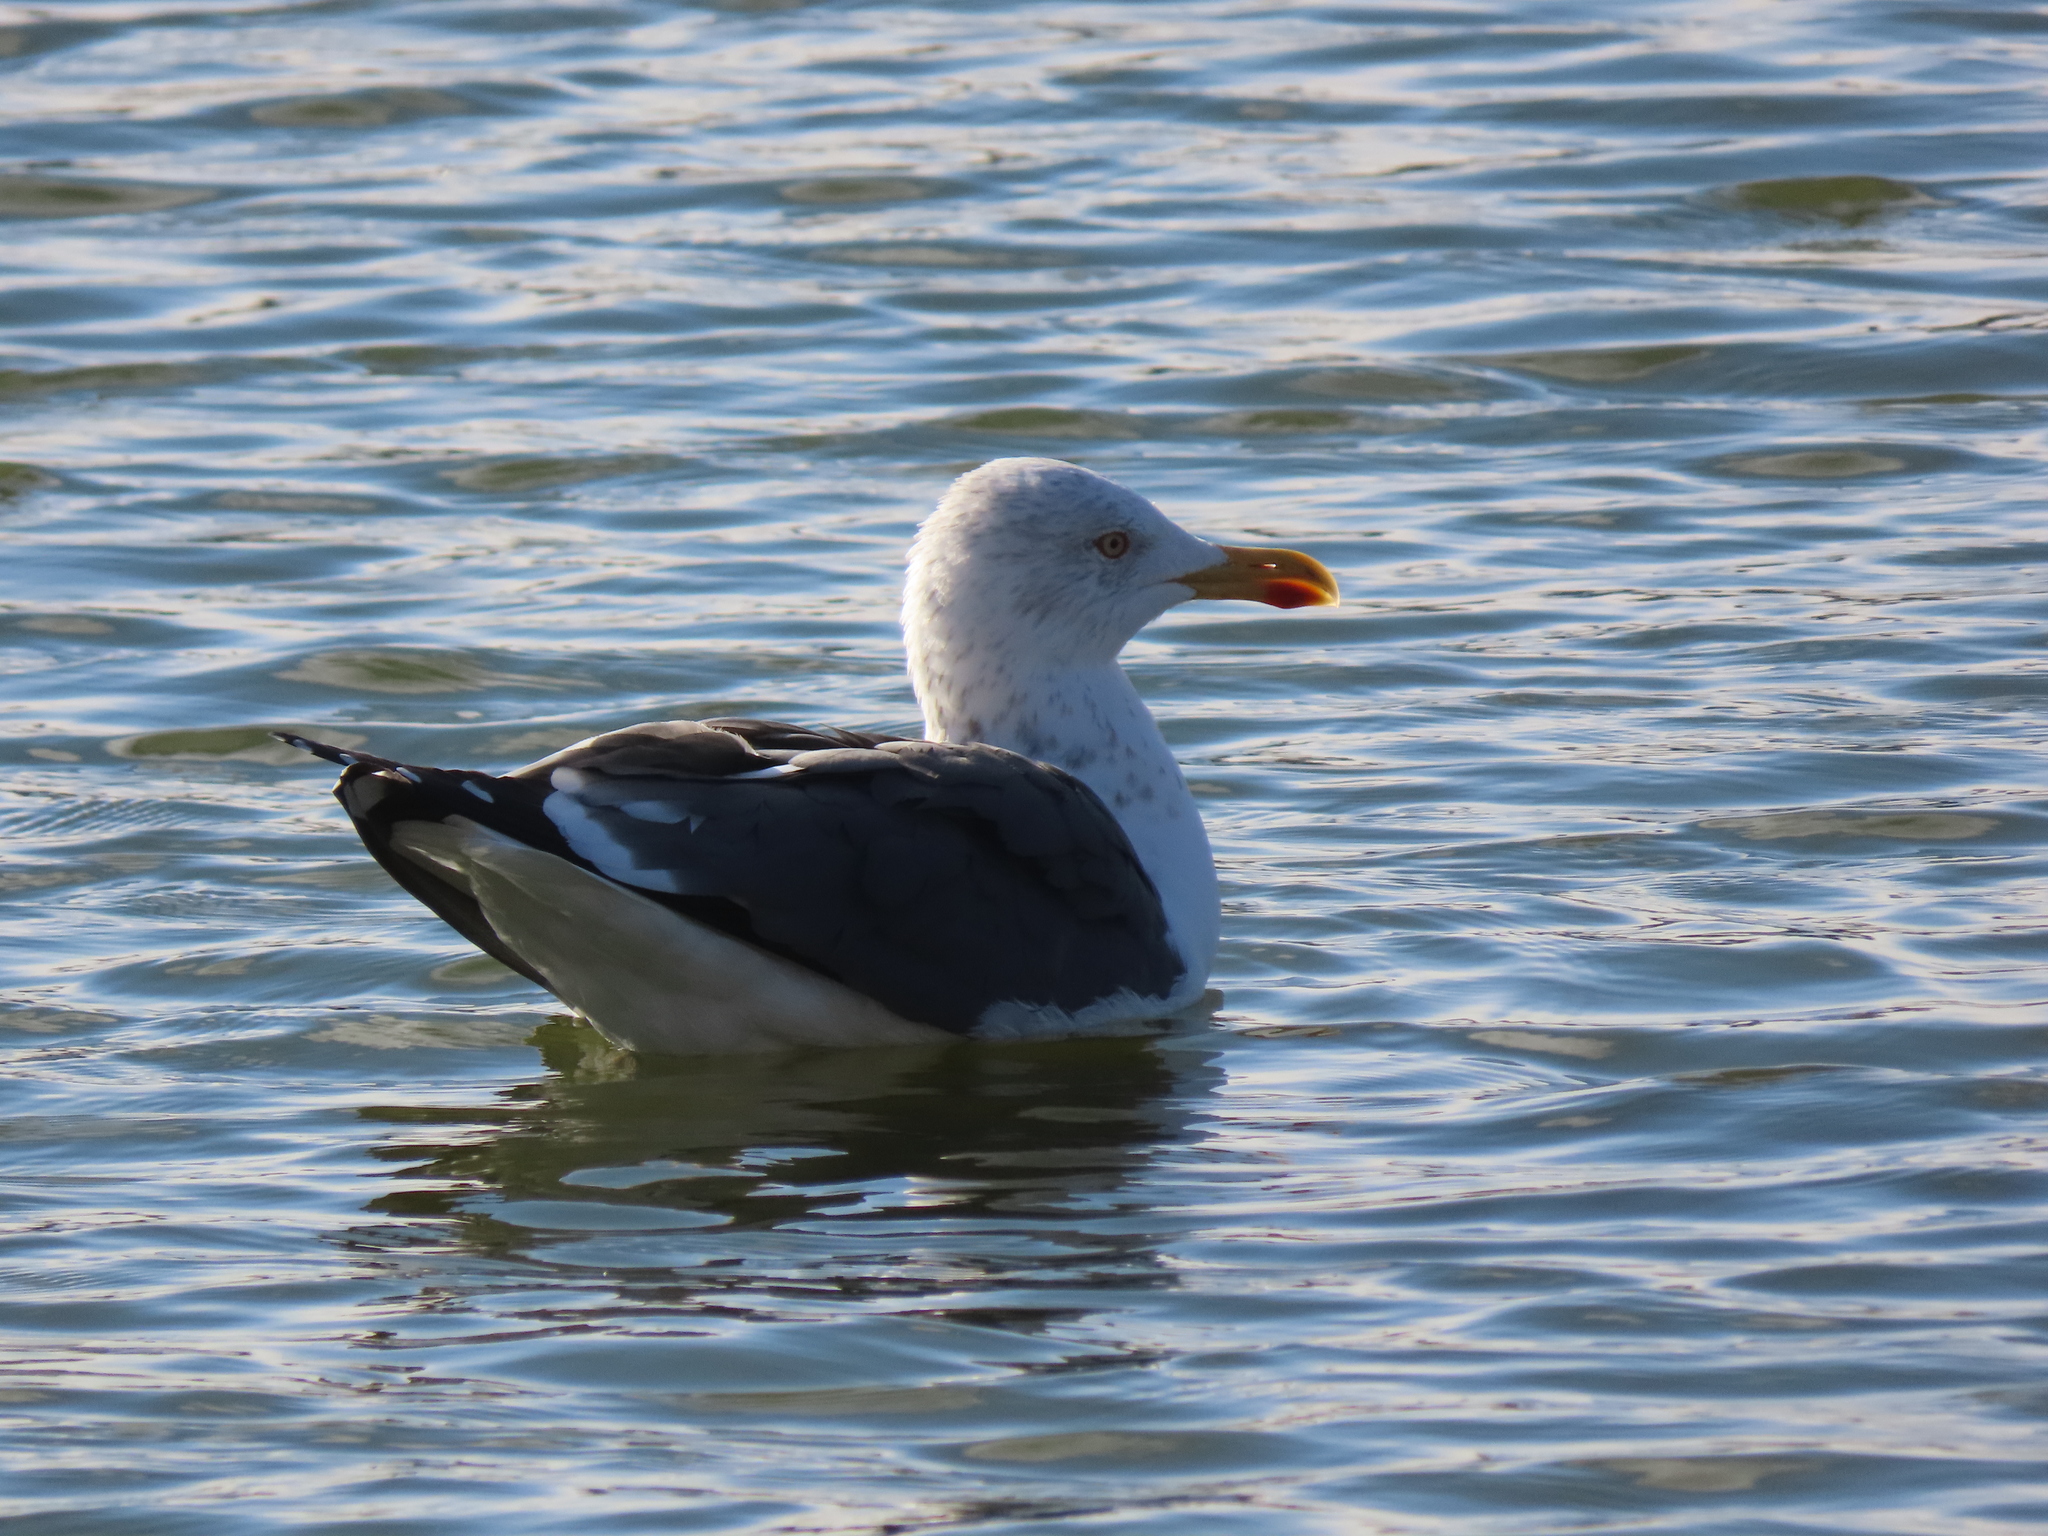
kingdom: Animalia
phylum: Chordata
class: Aves
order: Charadriiformes
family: Laridae
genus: Larus
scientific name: Larus fuscus
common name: Lesser black-backed gull
